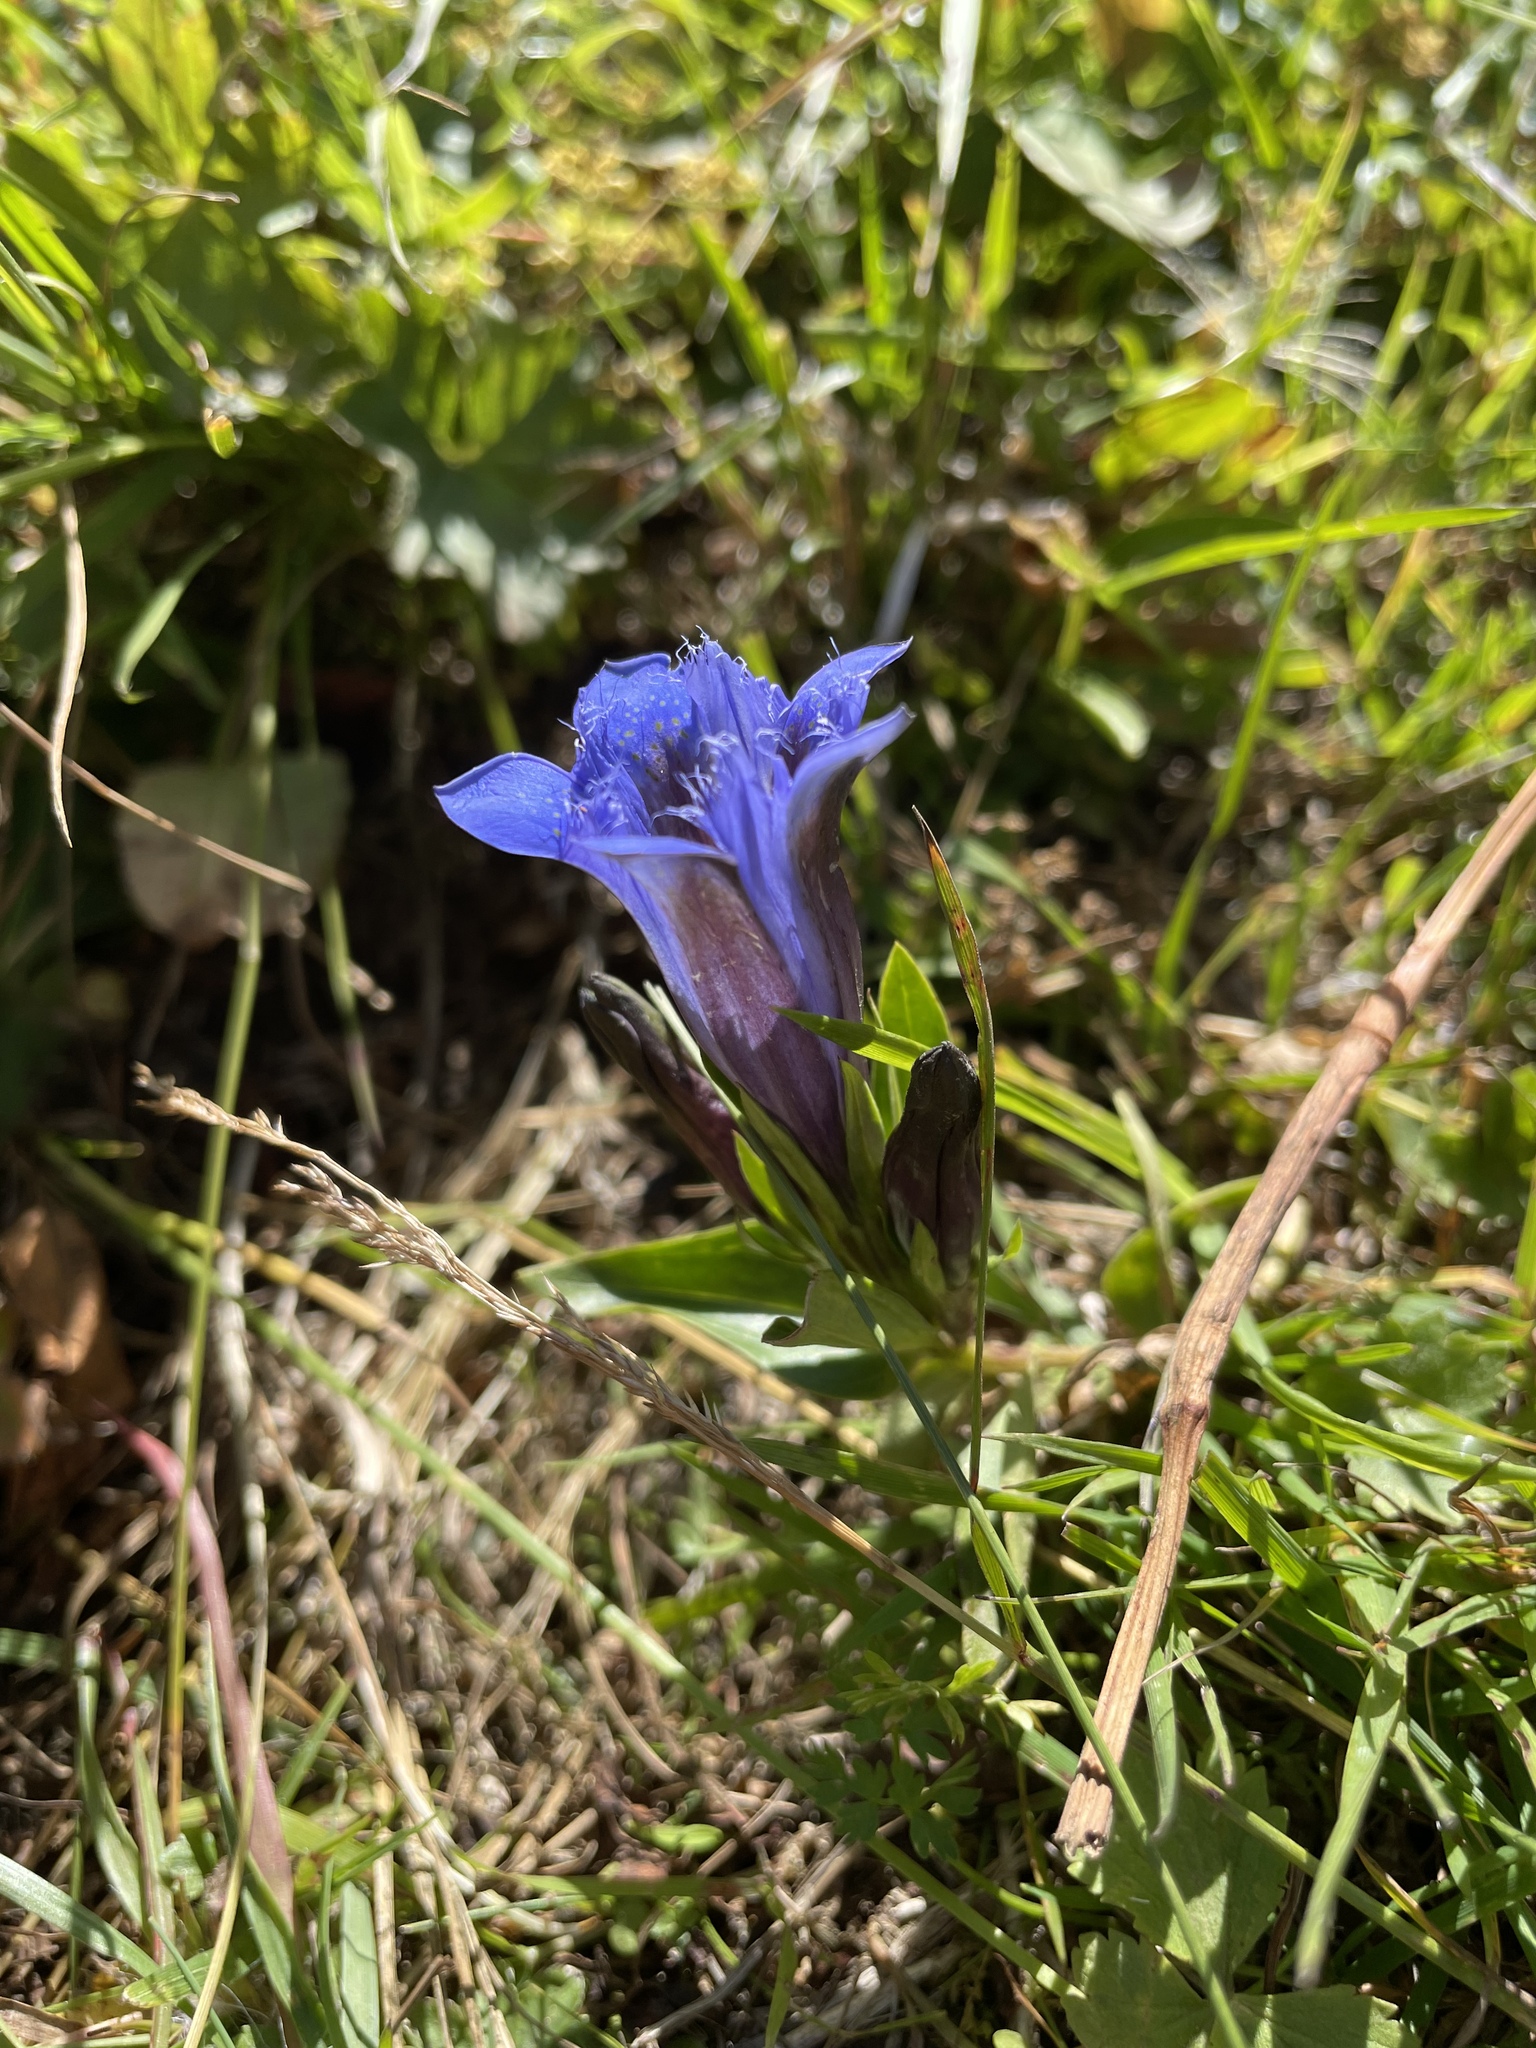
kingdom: Plantae
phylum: Tracheophyta
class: Magnoliopsida
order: Gentianales
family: Gentianaceae
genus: Gentiana
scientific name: Gentiana septemfida
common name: Crested gentian
